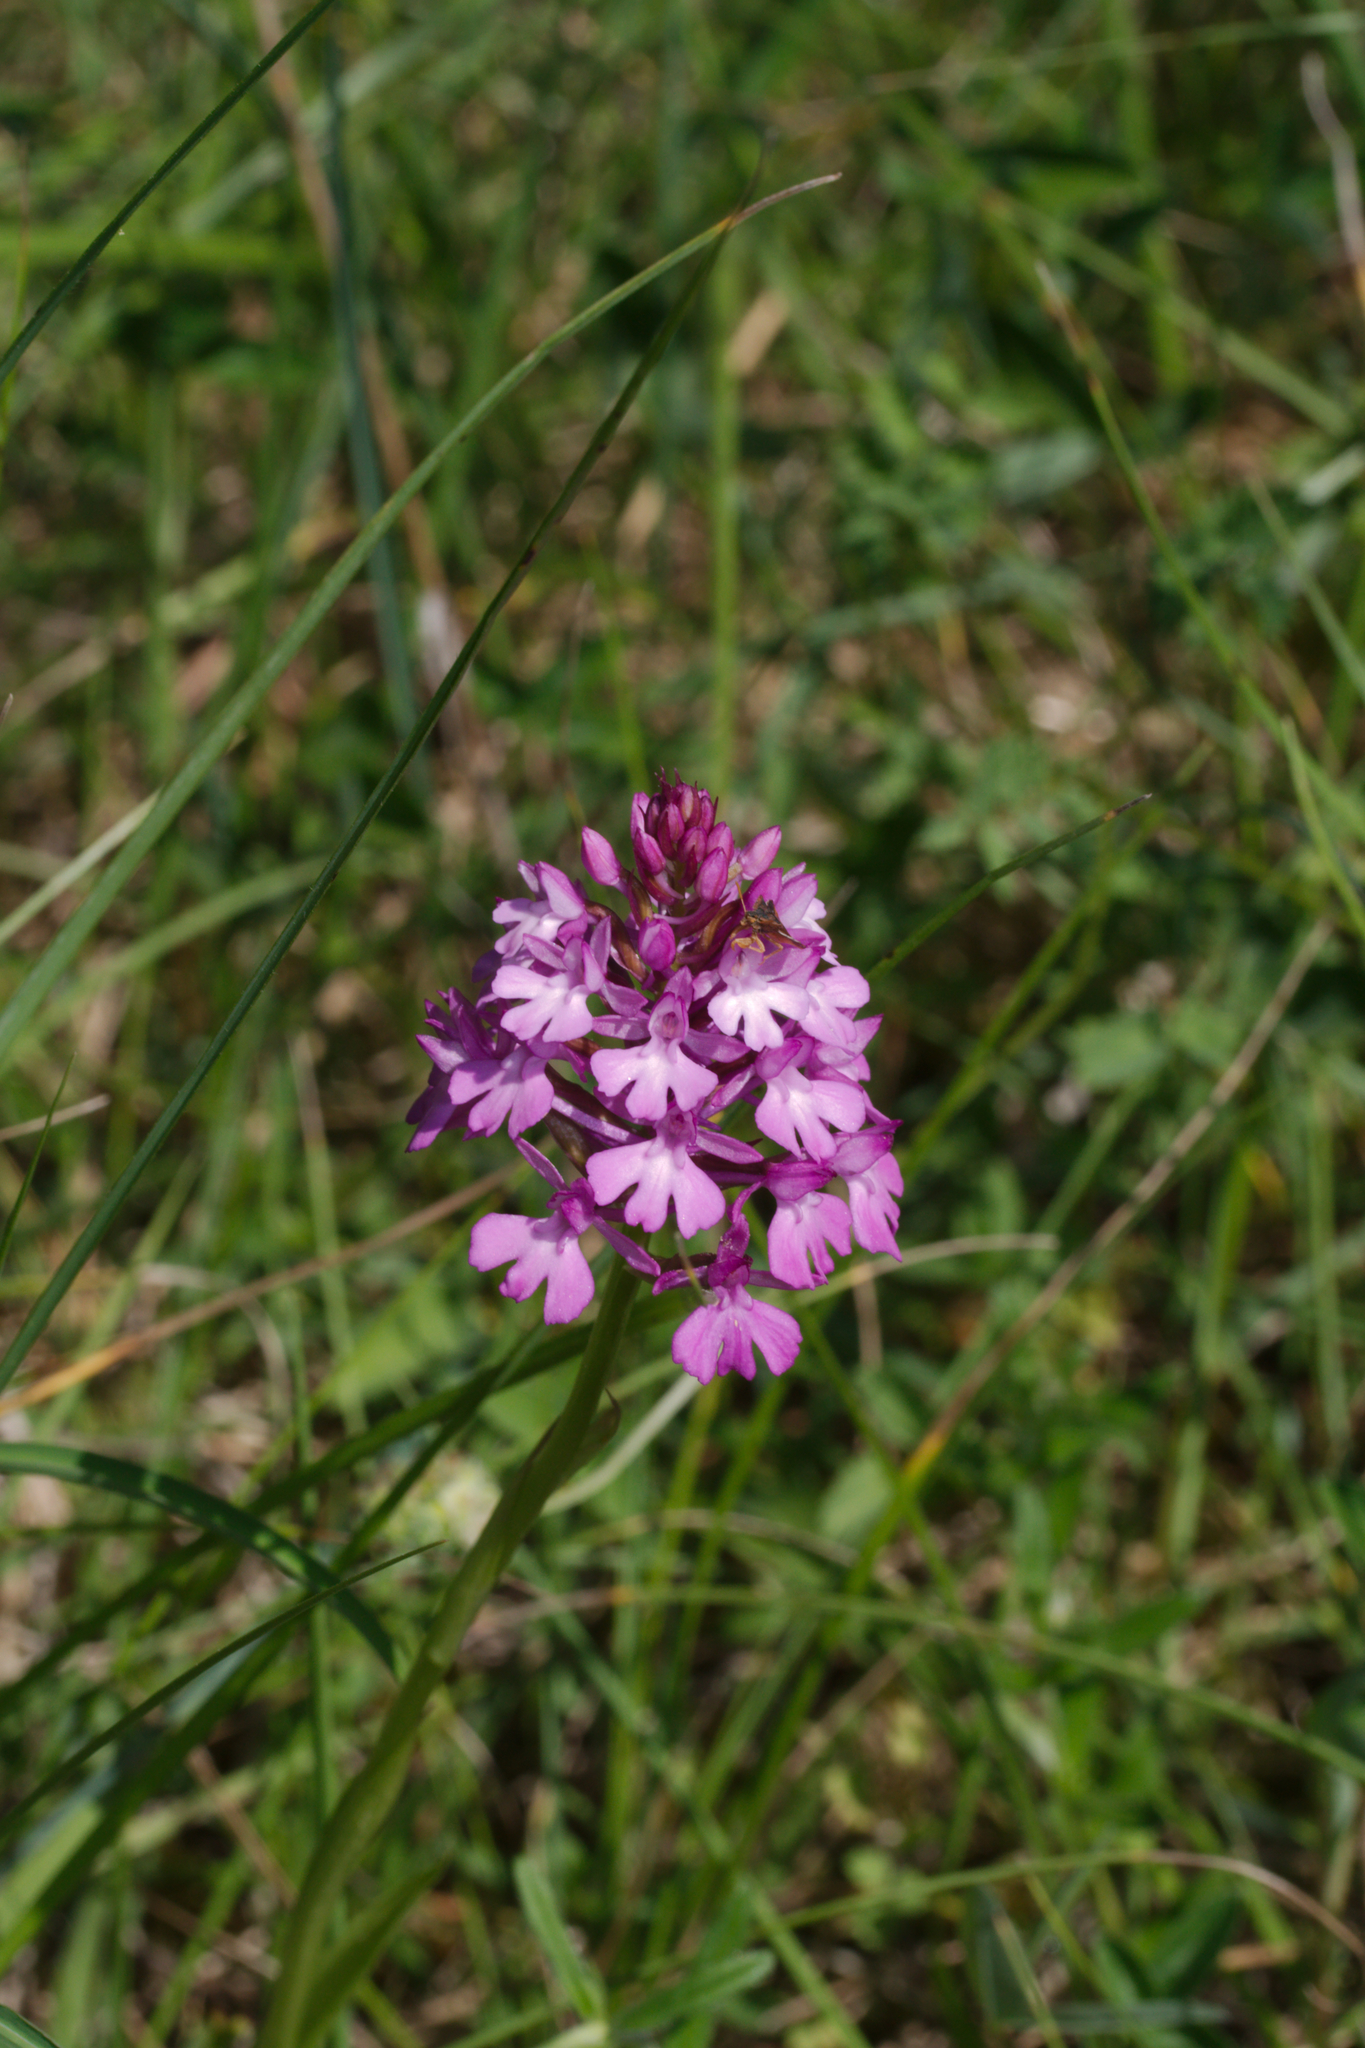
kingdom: Plantae
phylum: Tracheophyta
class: Liliopsida
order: Asparagales
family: Orchidaceae
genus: Anacamptis
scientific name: Anacamptis pyramidalis
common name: Pyramidal orchid
